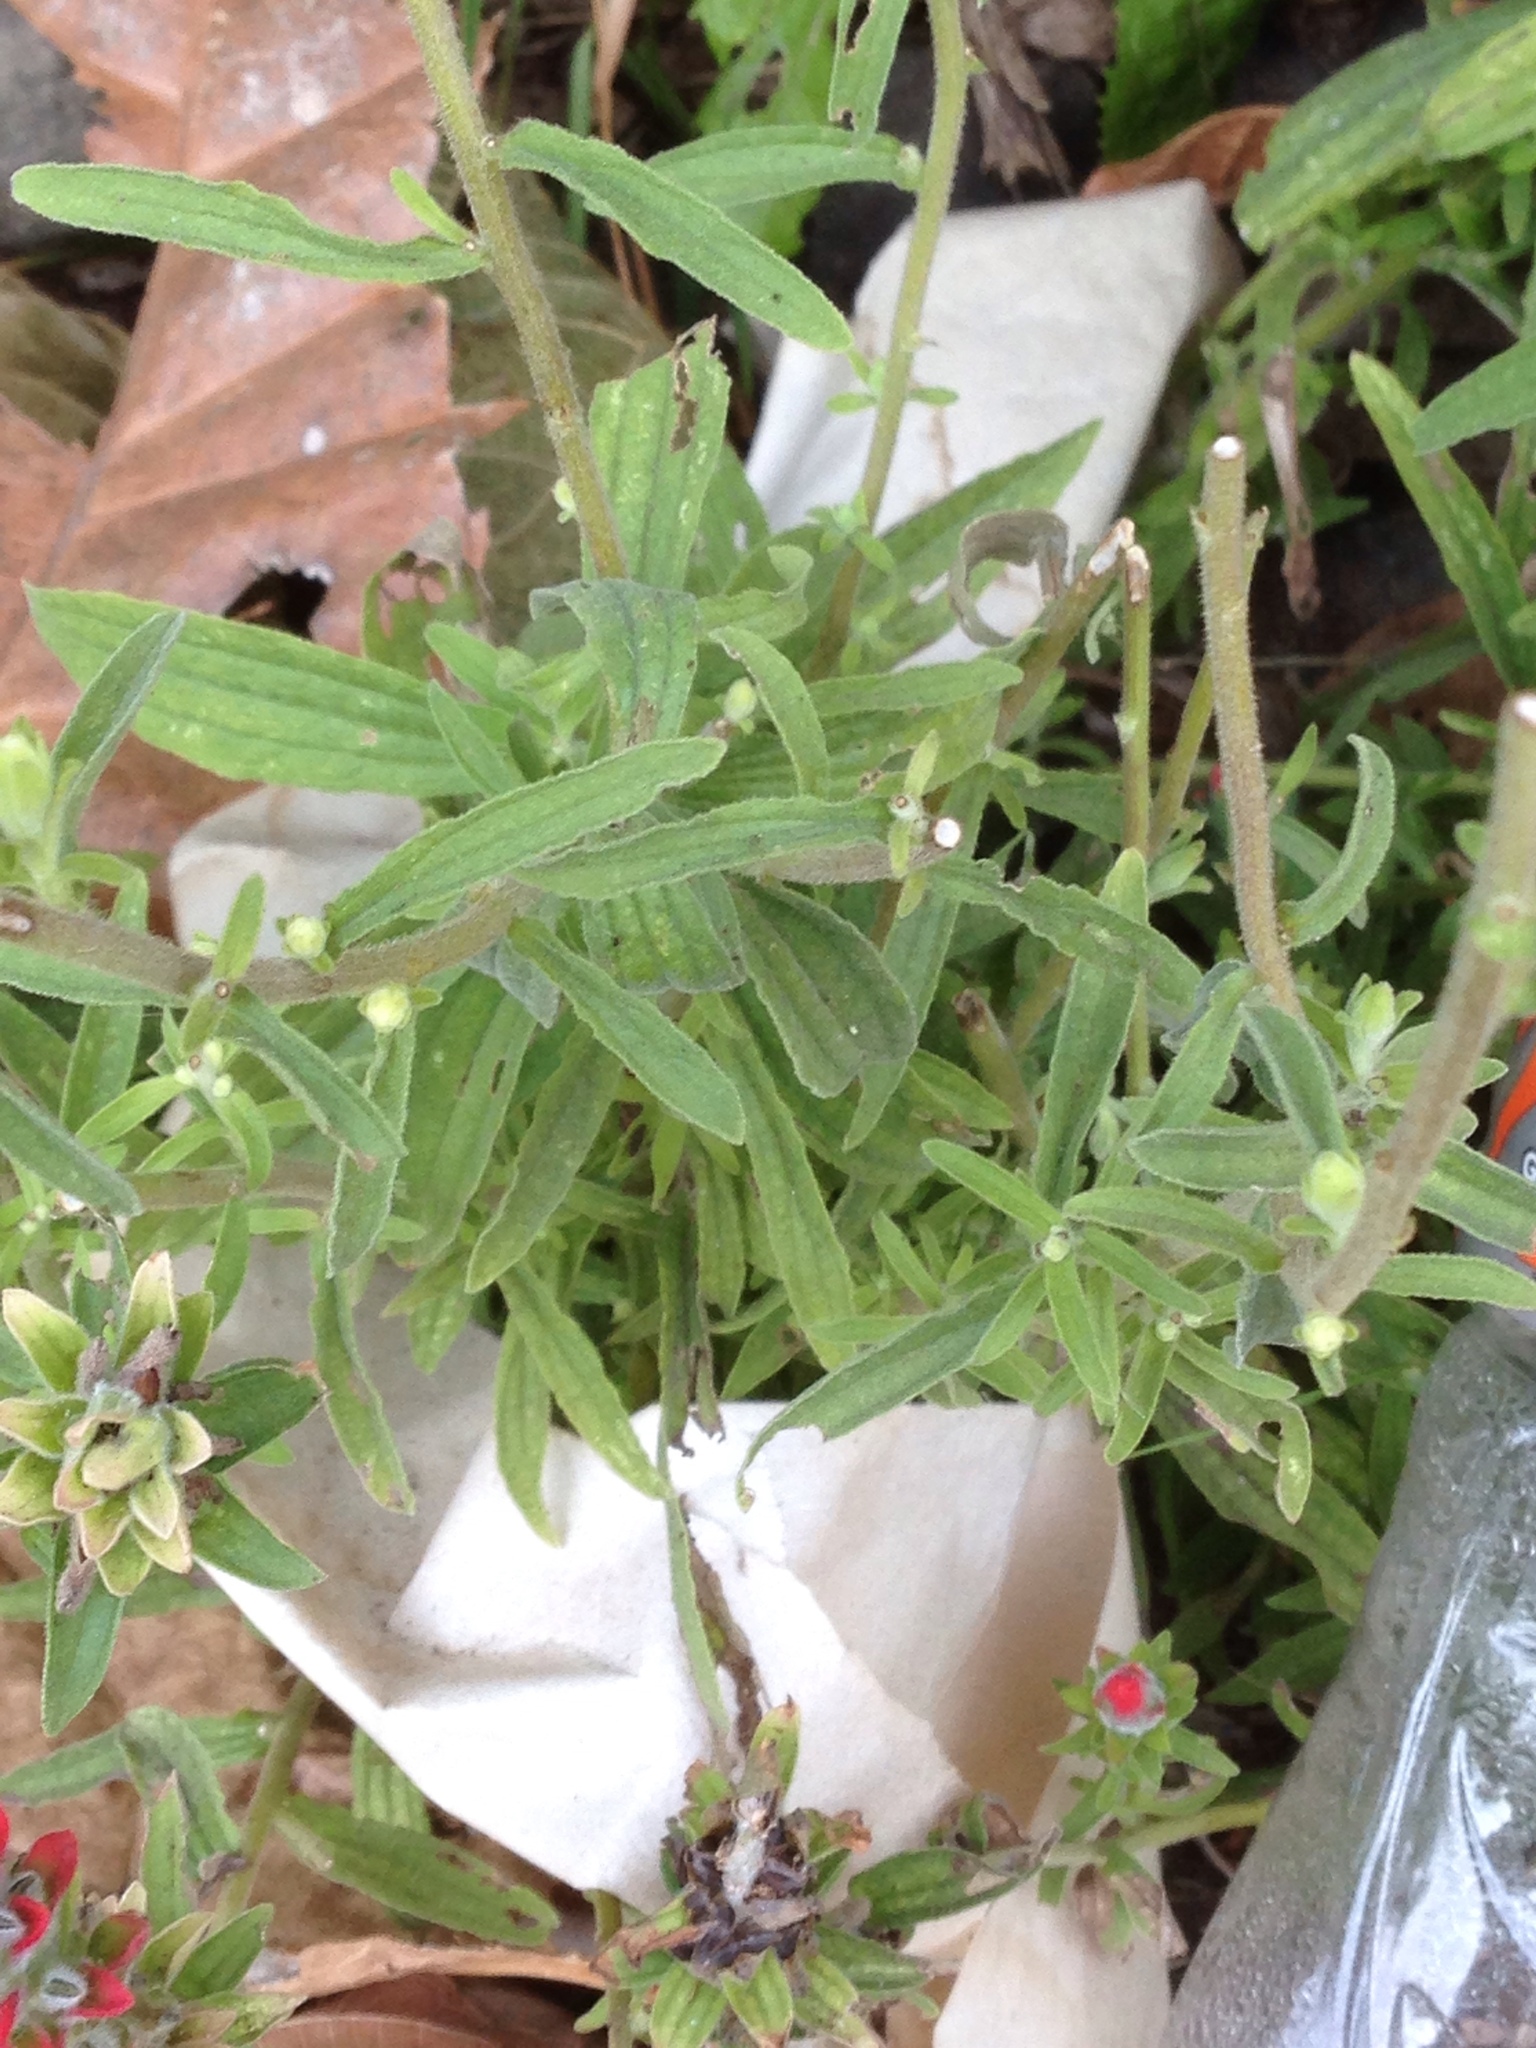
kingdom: Plantae
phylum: Tracheophyta
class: Magnoliopsida
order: Lamiales
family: Orobanchaceae
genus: Castilleja
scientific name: Castilleja arvensis
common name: Indian paintbrush
